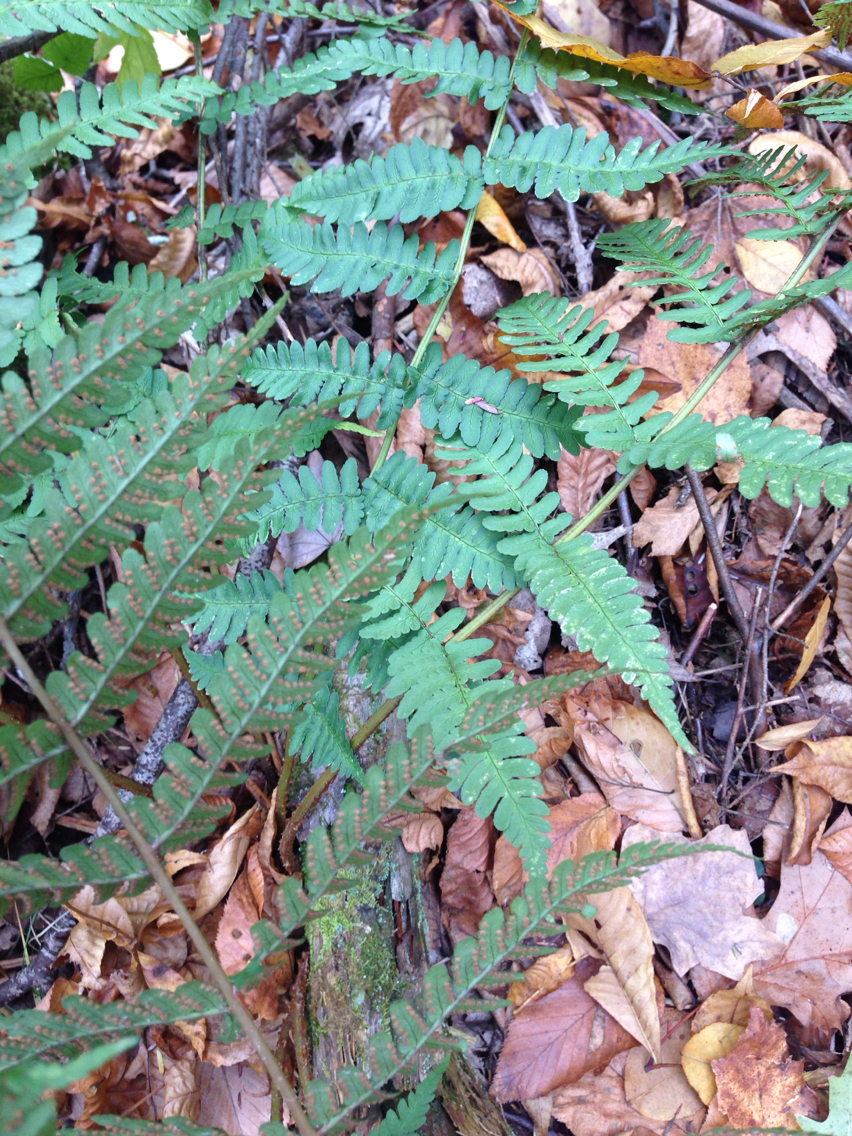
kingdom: Plantae
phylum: Tracheophyta
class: Polypodiopsida
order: Polypodiales
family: Dryopteridaceae
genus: Dryopteris
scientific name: Dryopteris marginalis
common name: Marginal wood fern
